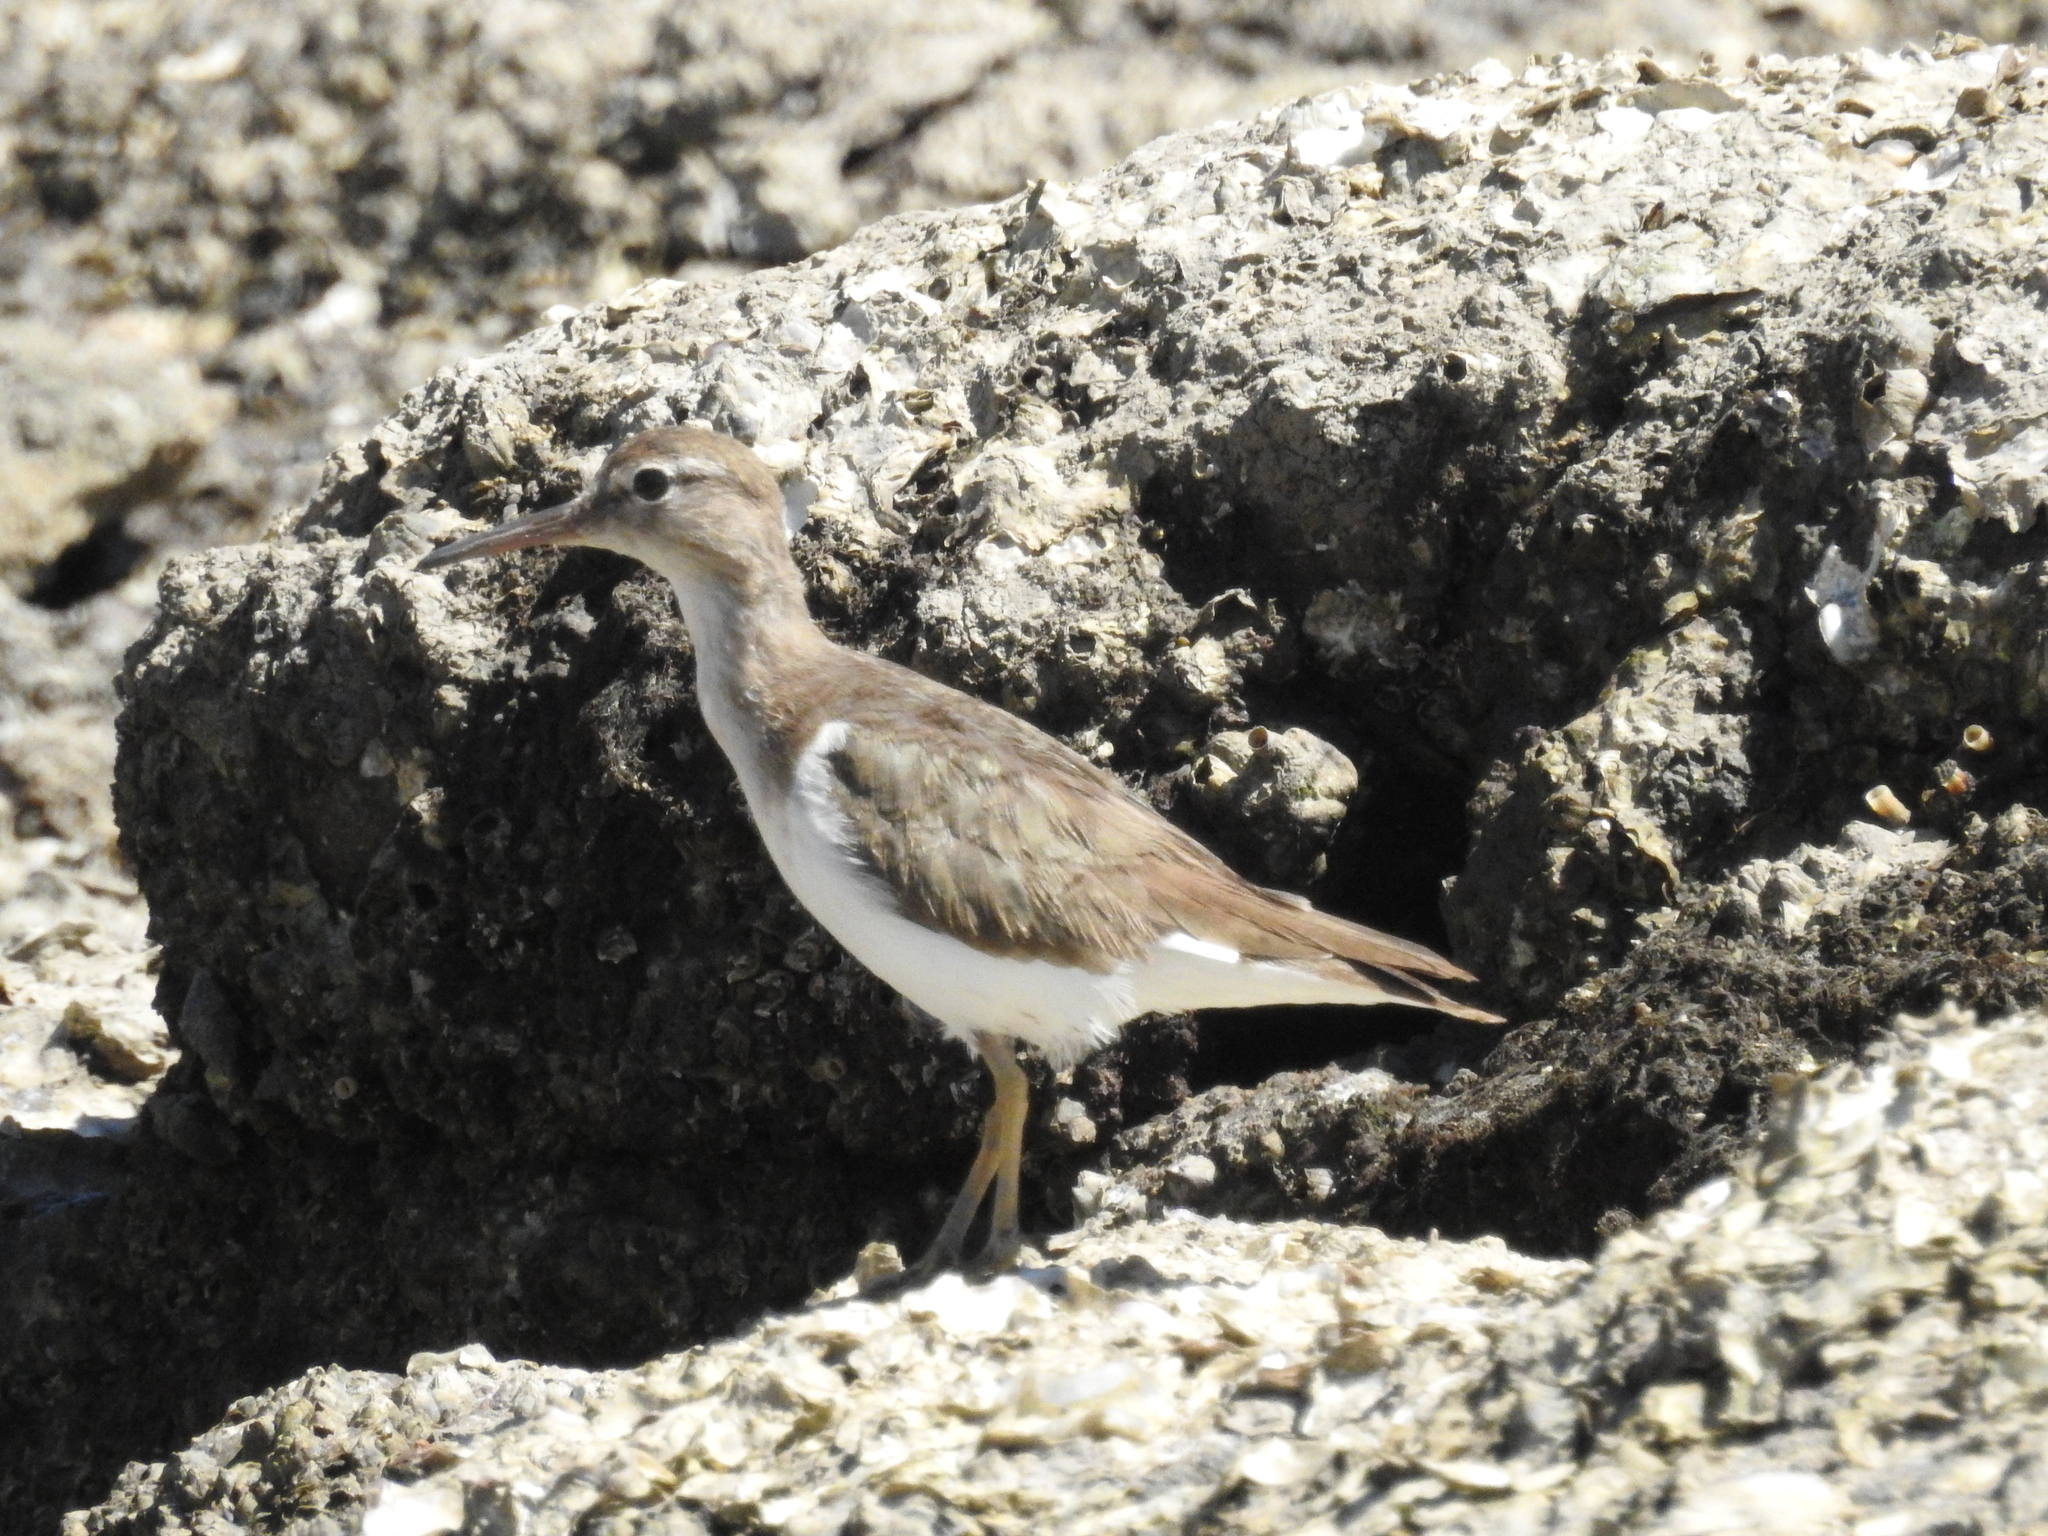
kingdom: Animalia
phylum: Chordata
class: Aves
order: Charadriiformes
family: Scolopacidae
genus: Actitis
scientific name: Actitis macularius
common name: Spotted sandpiper
